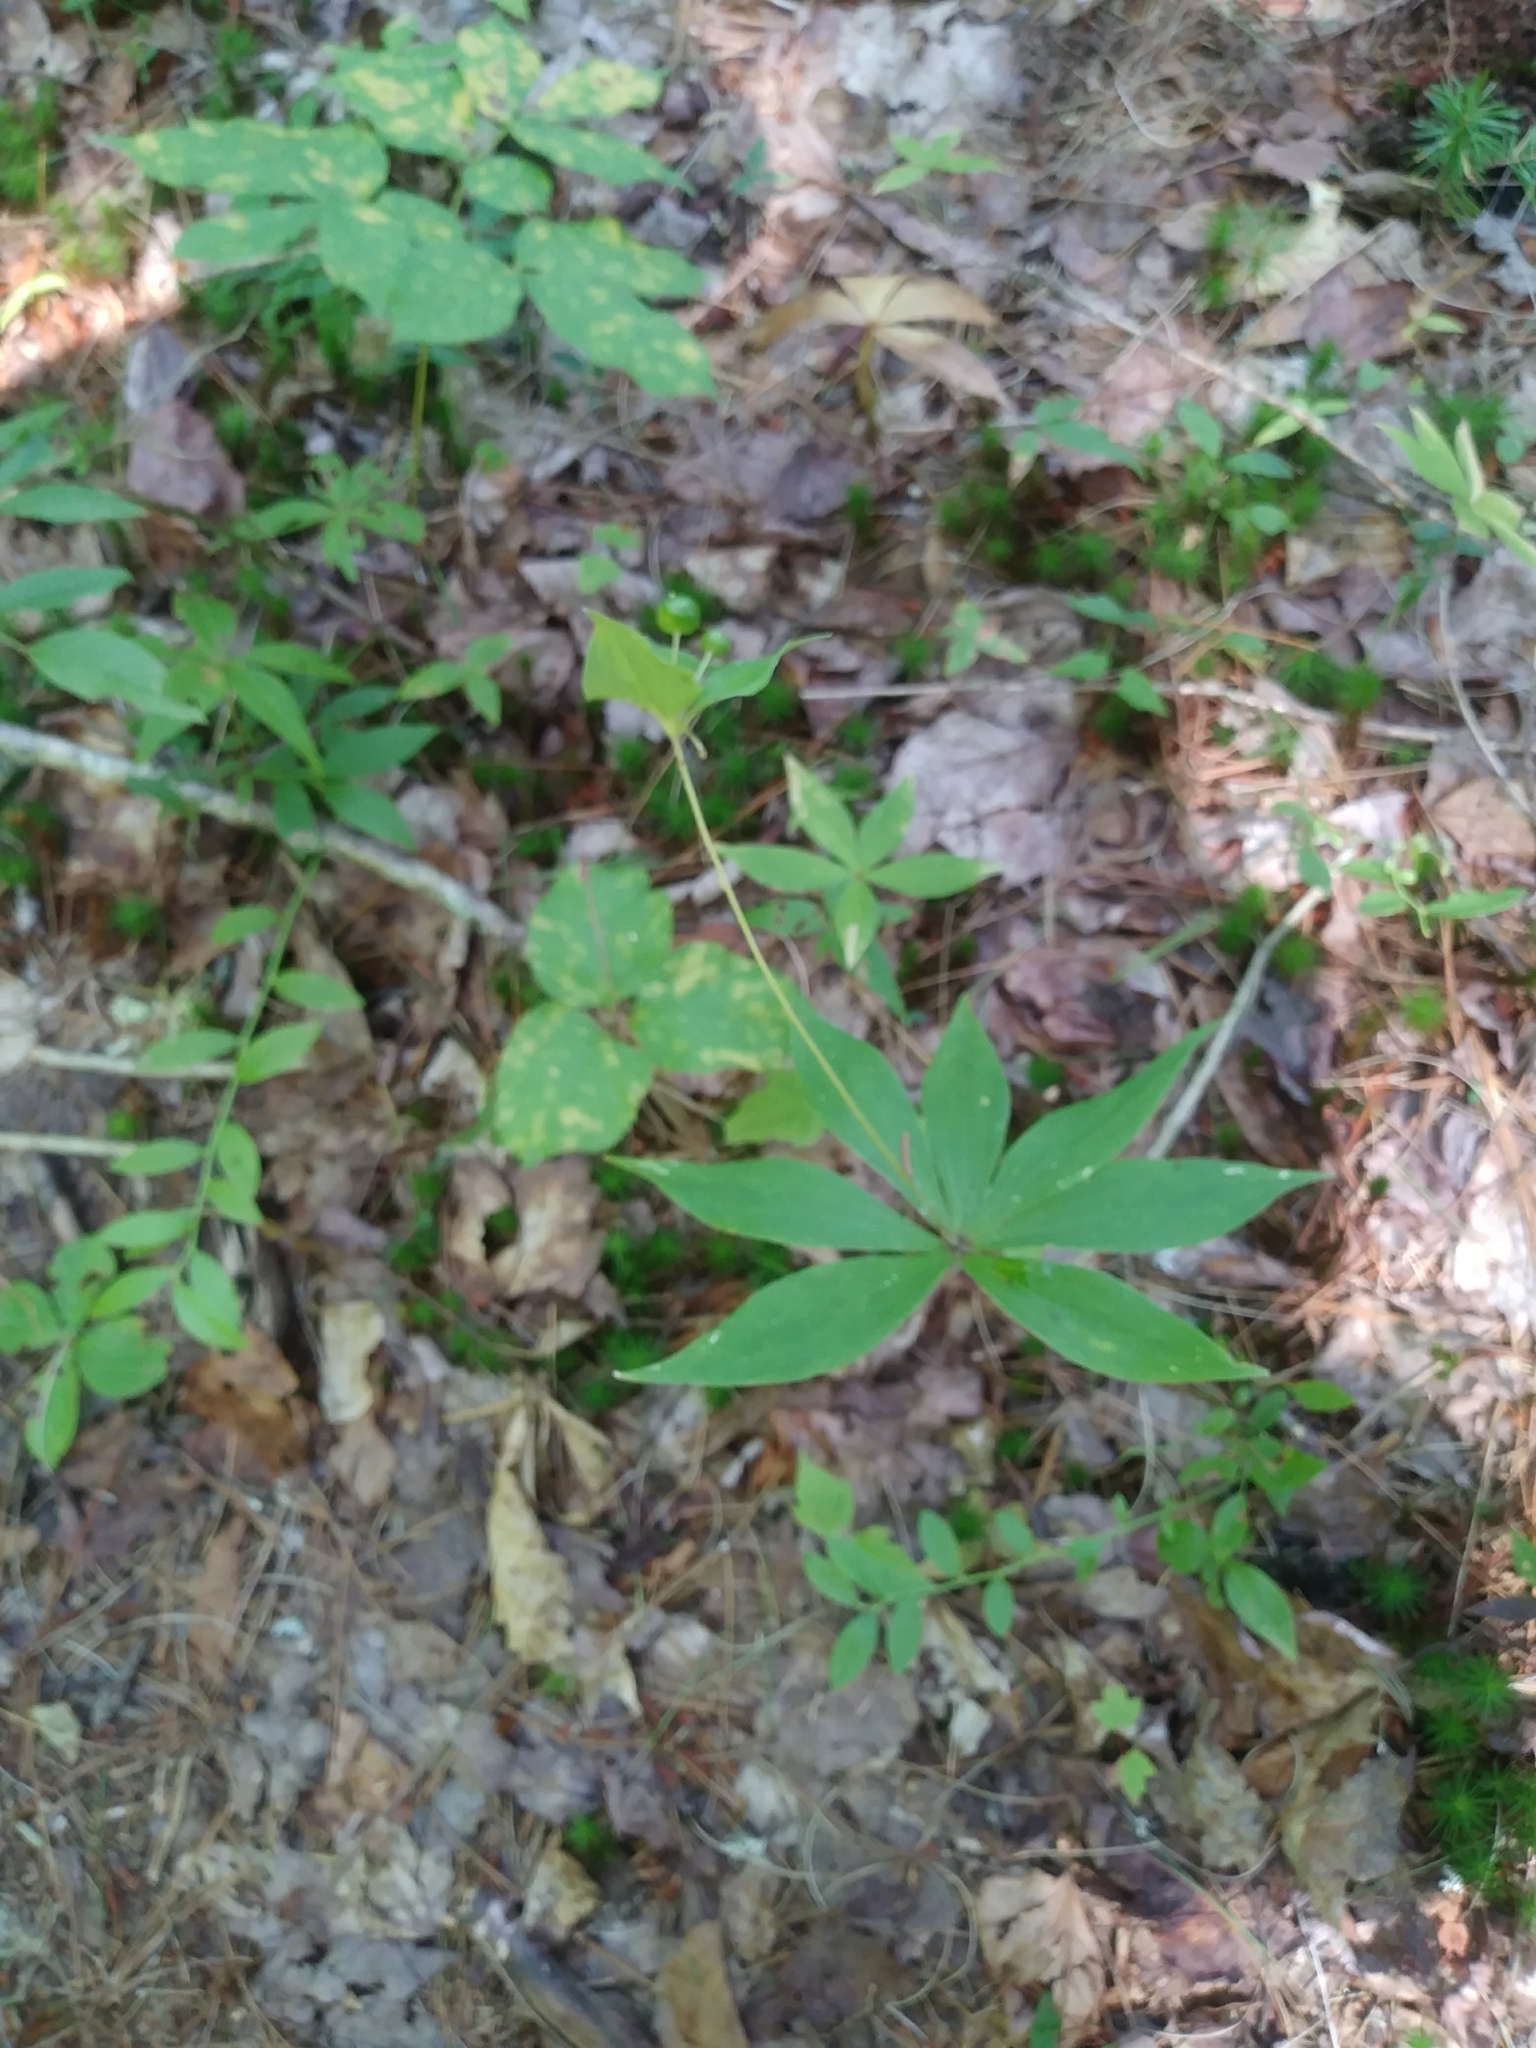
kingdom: Plantae
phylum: Tracheophyta
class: Liliopsida
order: Liliales
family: Liliaceae
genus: Medeola
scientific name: Medeola virginiana
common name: Indian cucumber-root
